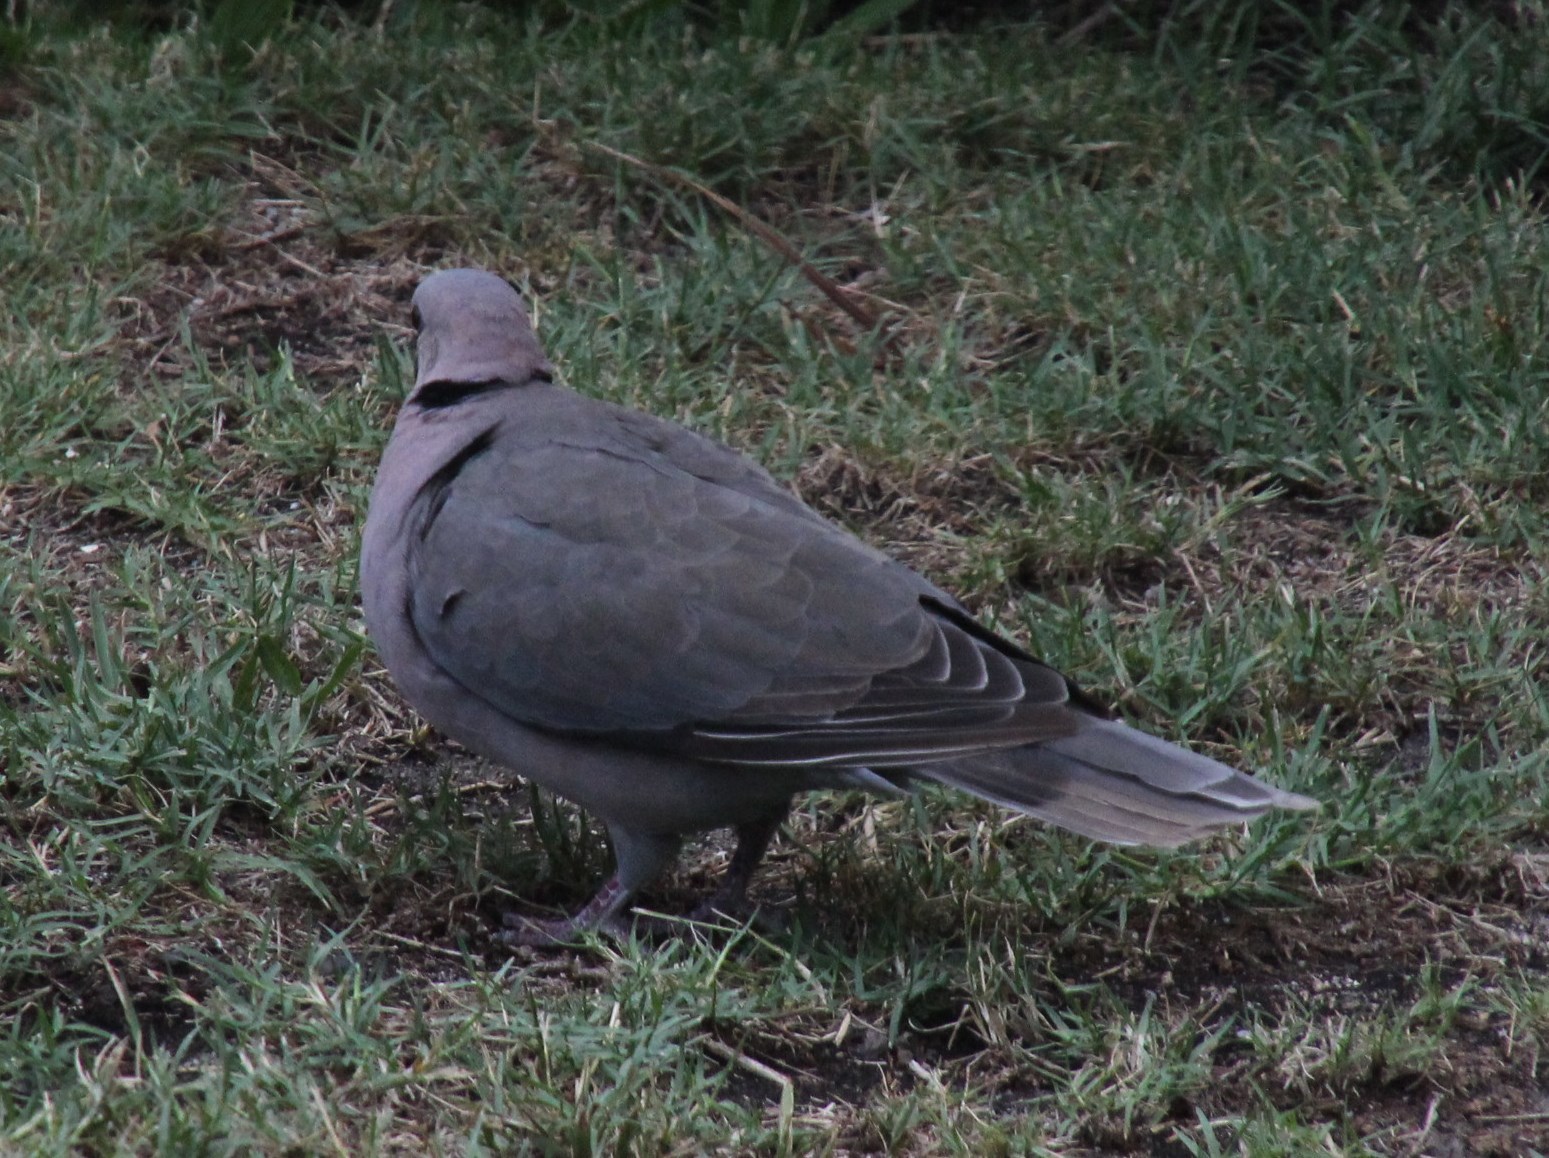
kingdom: Animalia
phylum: Chordata
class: Aves
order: Columbiformes
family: Columbidae
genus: Streptopelia
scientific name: Streptopelia semitorquata
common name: Red-eyed dove
